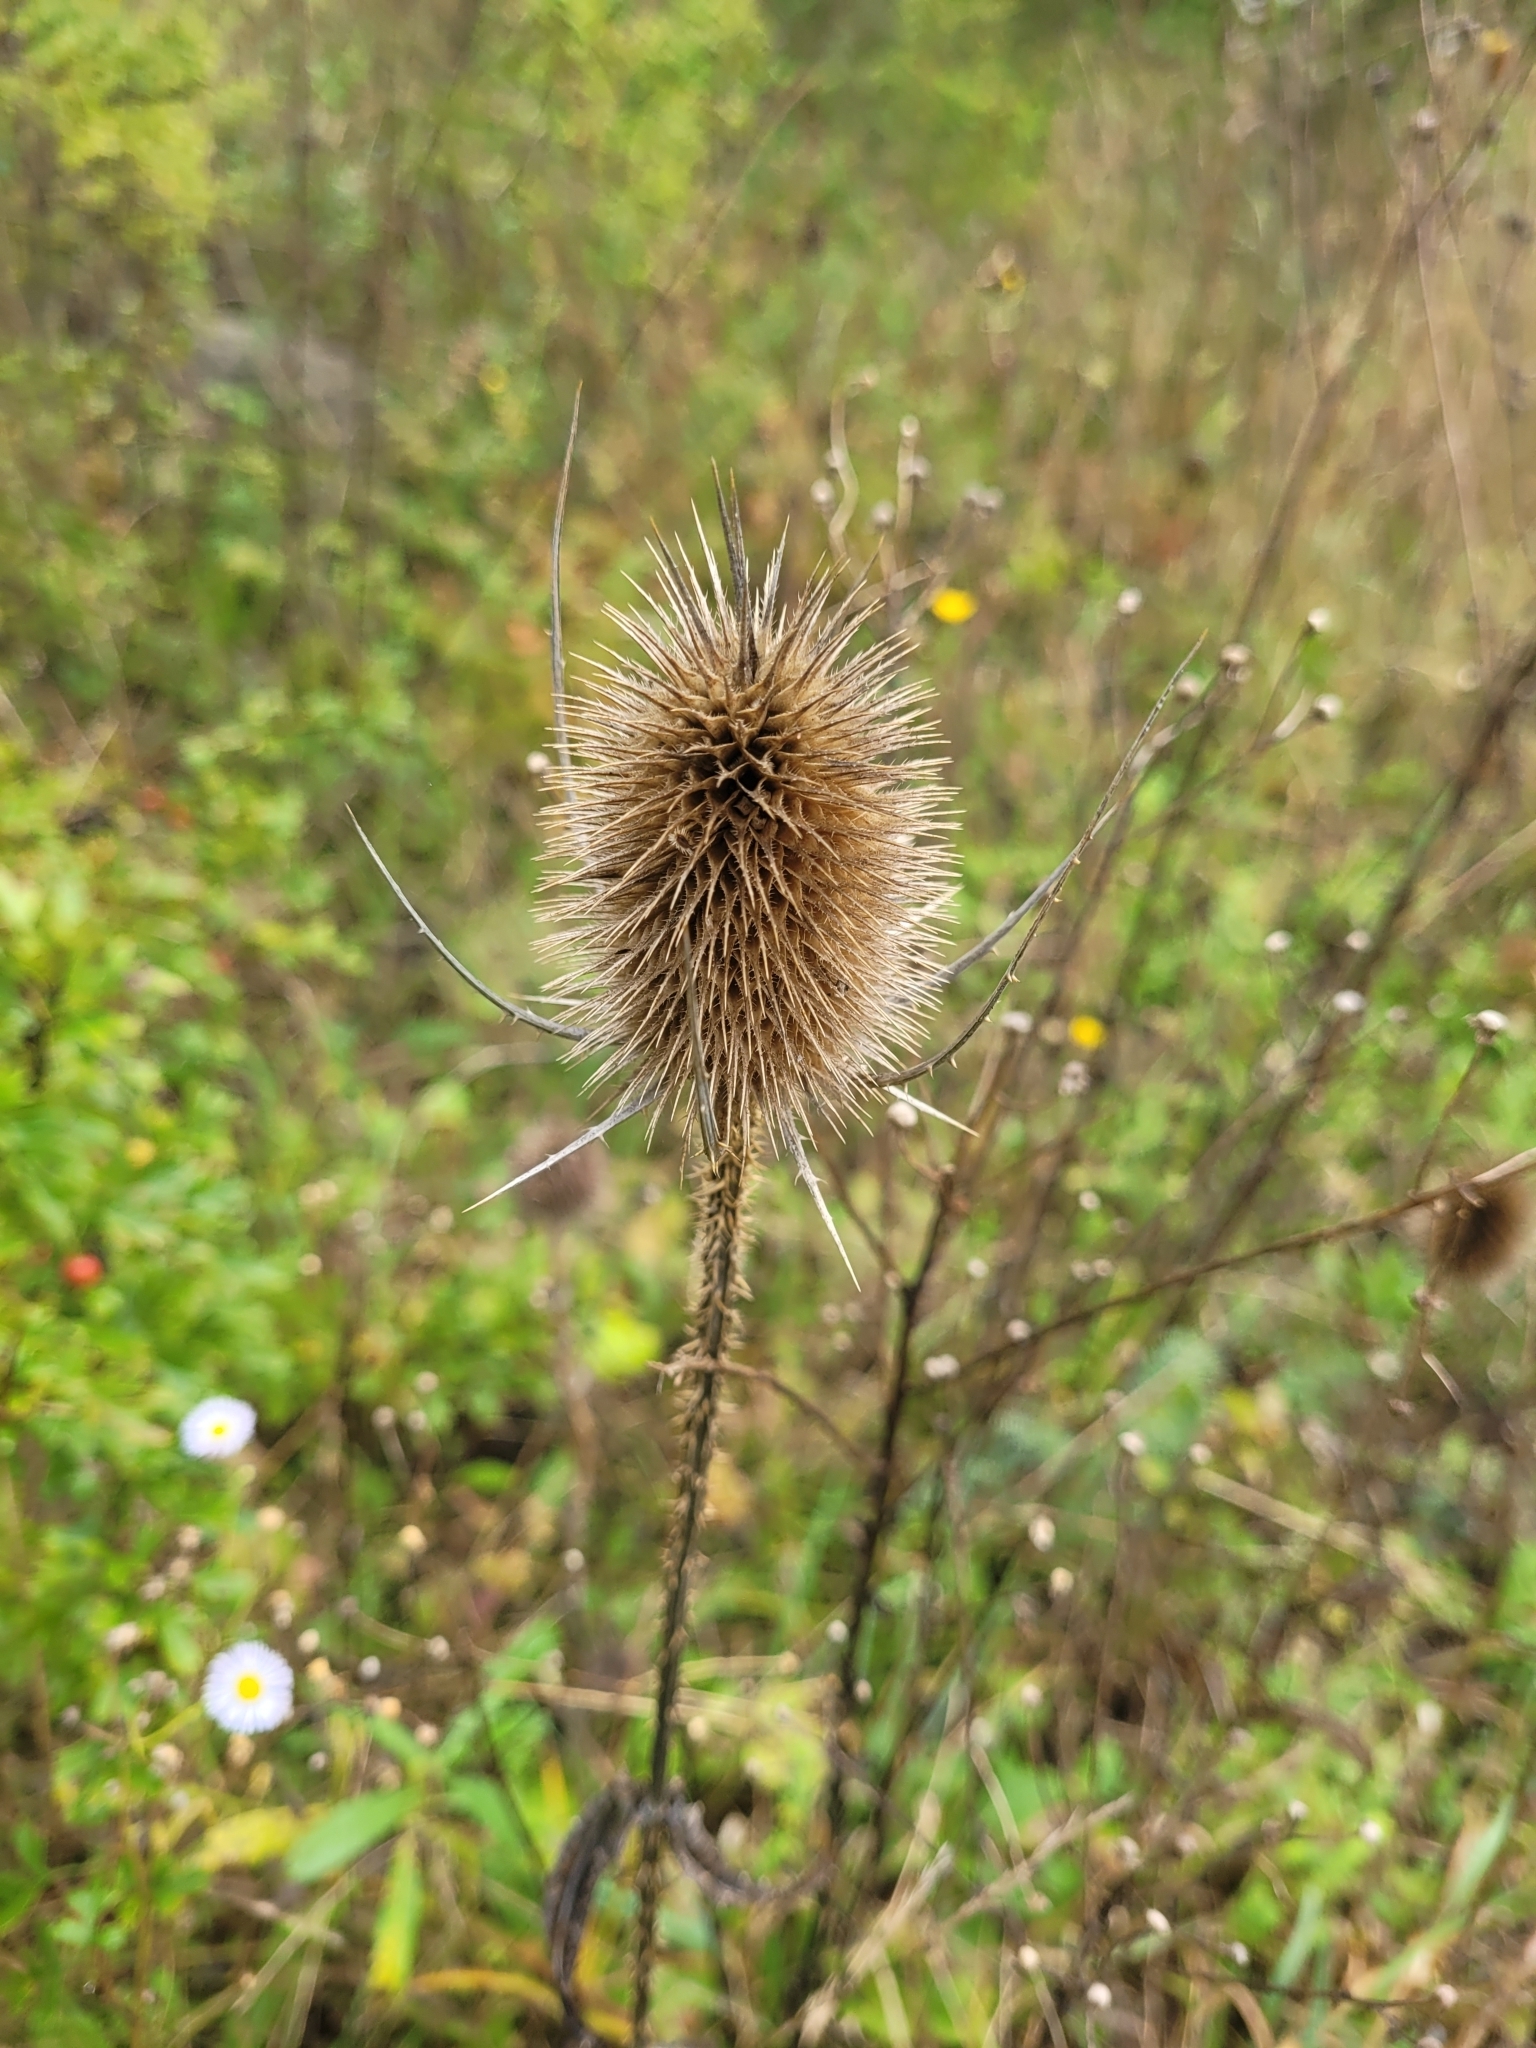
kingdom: Plantae
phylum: Tracheophyta
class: Magnoliopsida
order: Dipsacales
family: Caprifoliaceae
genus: Dipsacus
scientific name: Dipsacus fullonum
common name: Teasel
